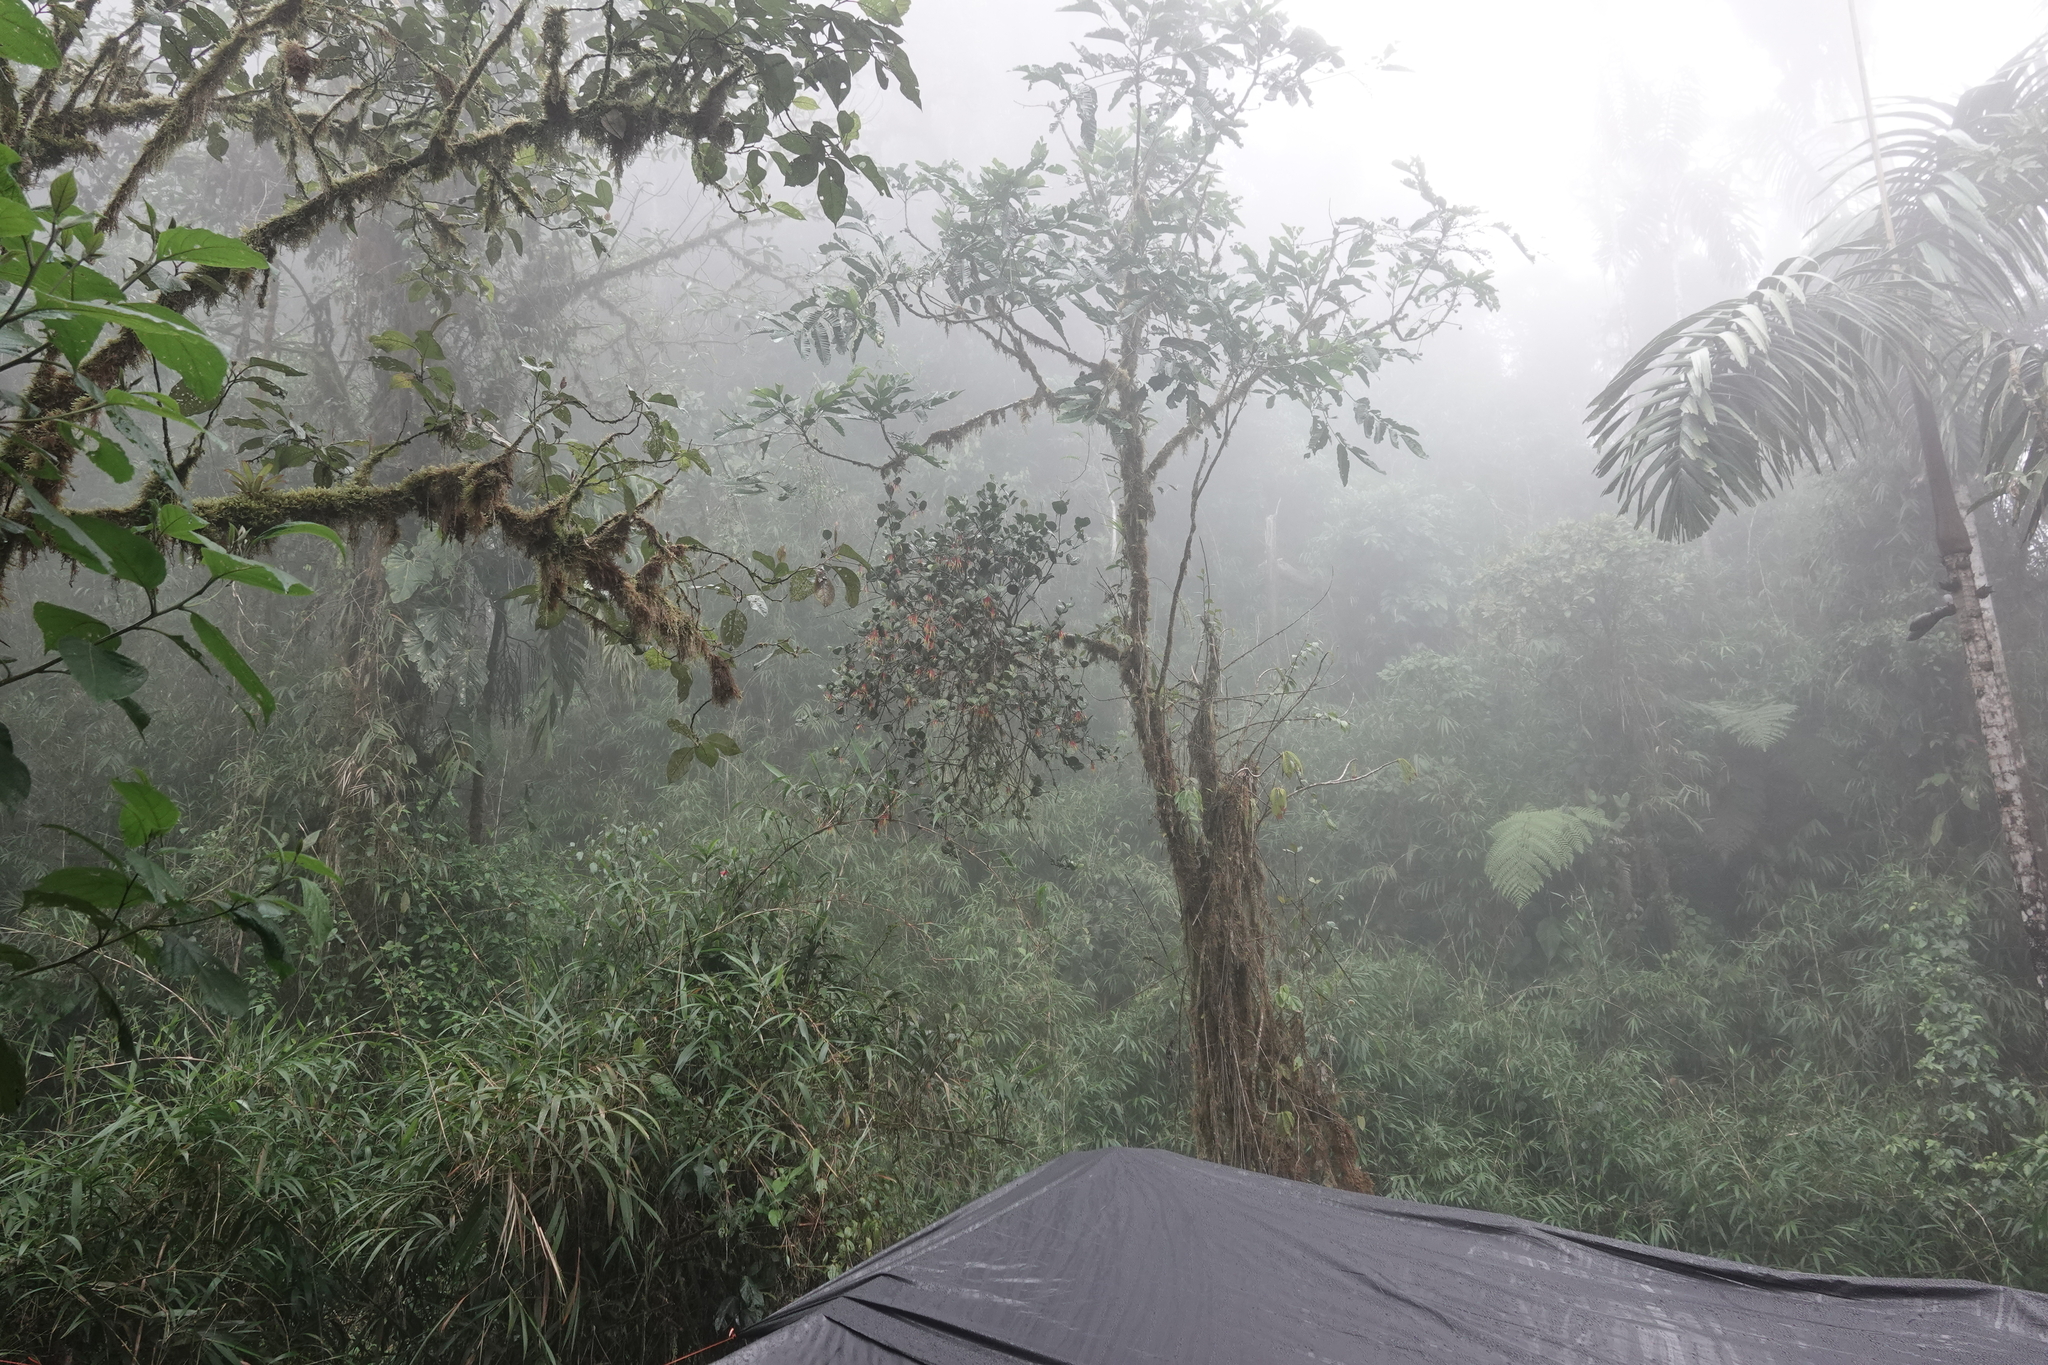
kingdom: Plantae
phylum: Tracheophyta
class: Magnoliopsida
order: Santalales
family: Loranthaceae
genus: Aetanthus
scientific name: Aetanthus nodosus
